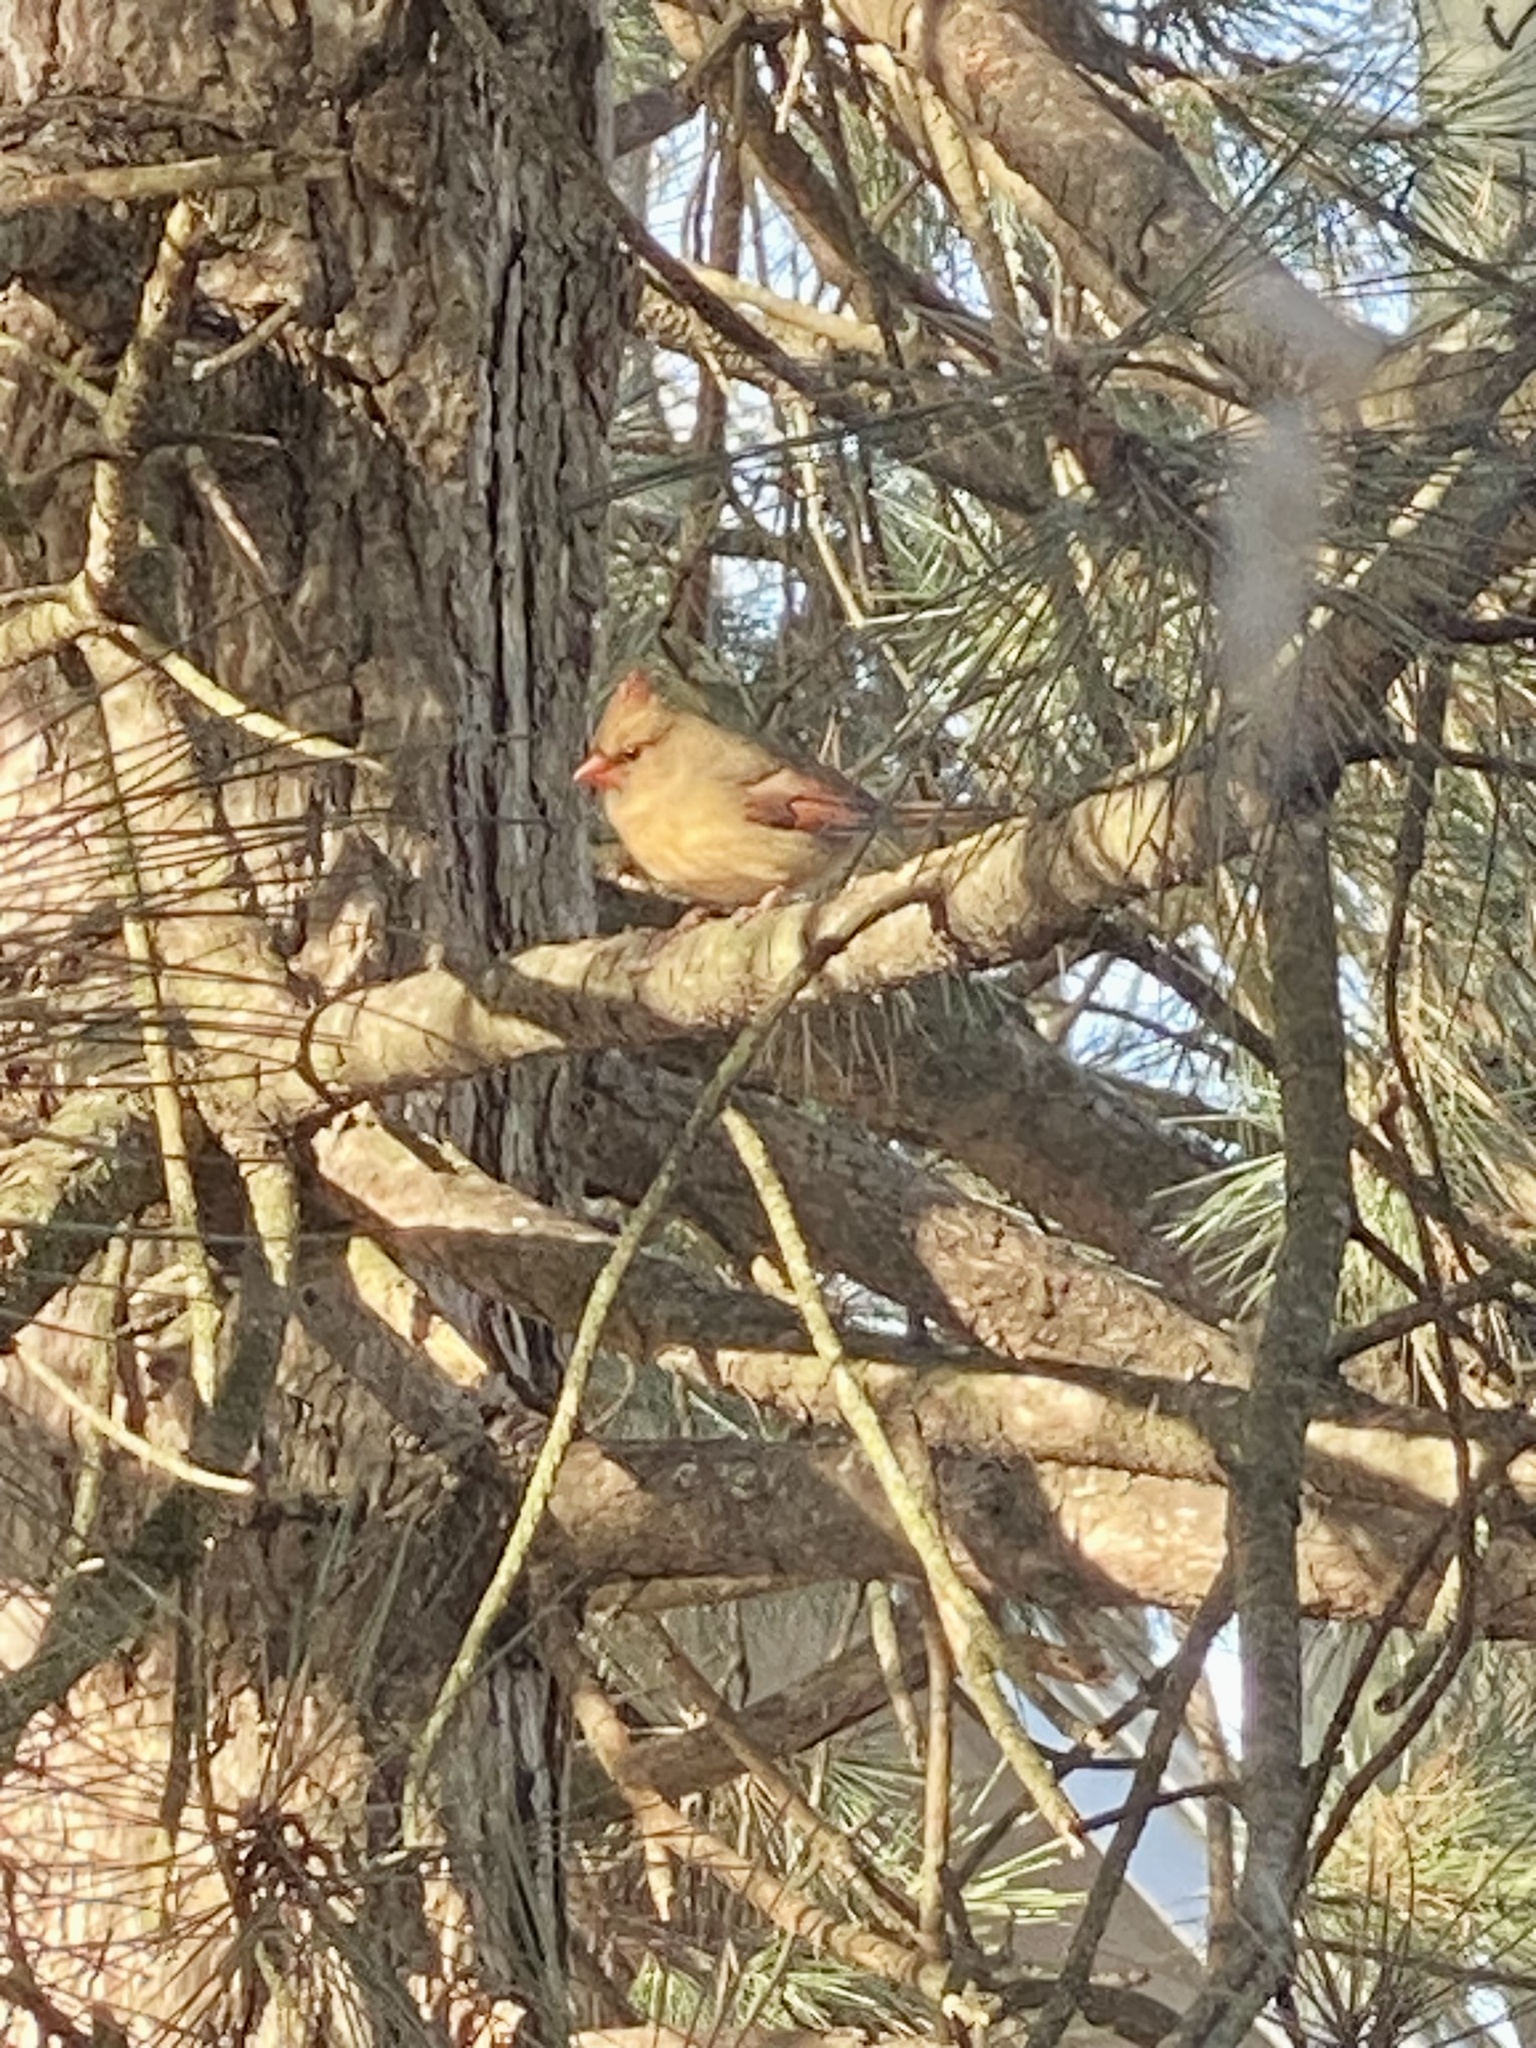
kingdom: Animalia
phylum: Chordata
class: Aves
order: Passeriformes
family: Cardinalidae
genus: Cardinalis
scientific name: Cardinalis cardinalis
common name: Northern cardinal
